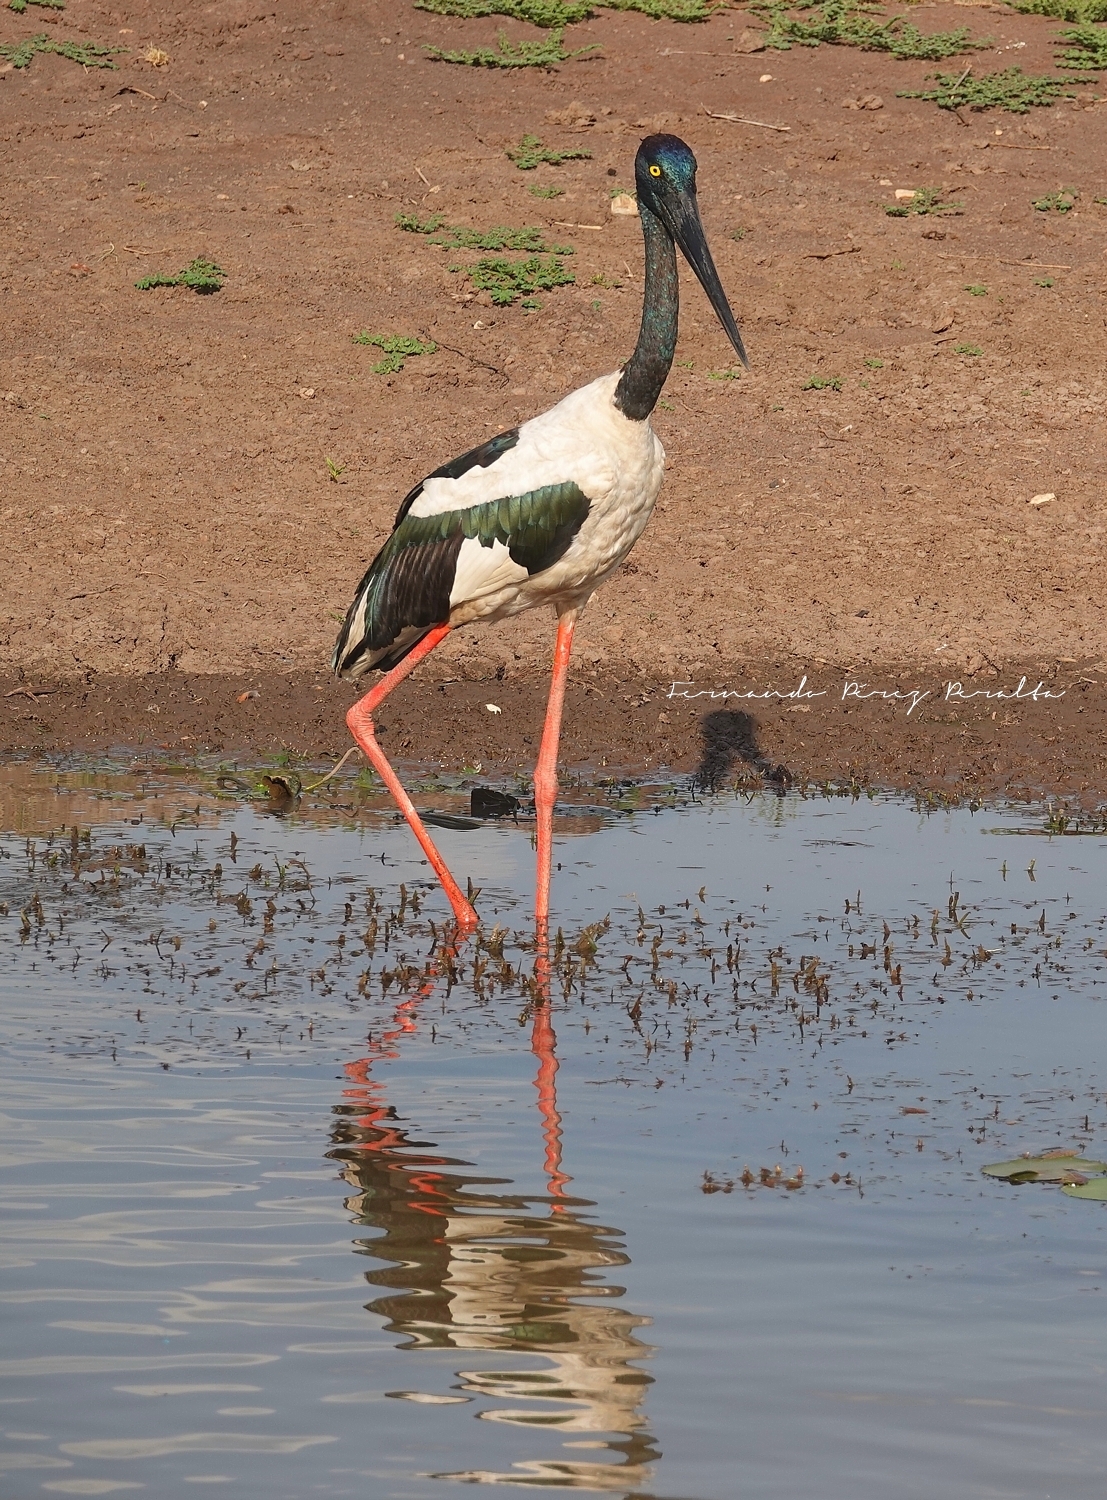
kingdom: Animalia
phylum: Chordata
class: Aves
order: Ciconiiformes
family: Ciconiidae
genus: Ephippiorhynchus
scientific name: Ephippiorhynchus asiaticus
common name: Black-necked stork
